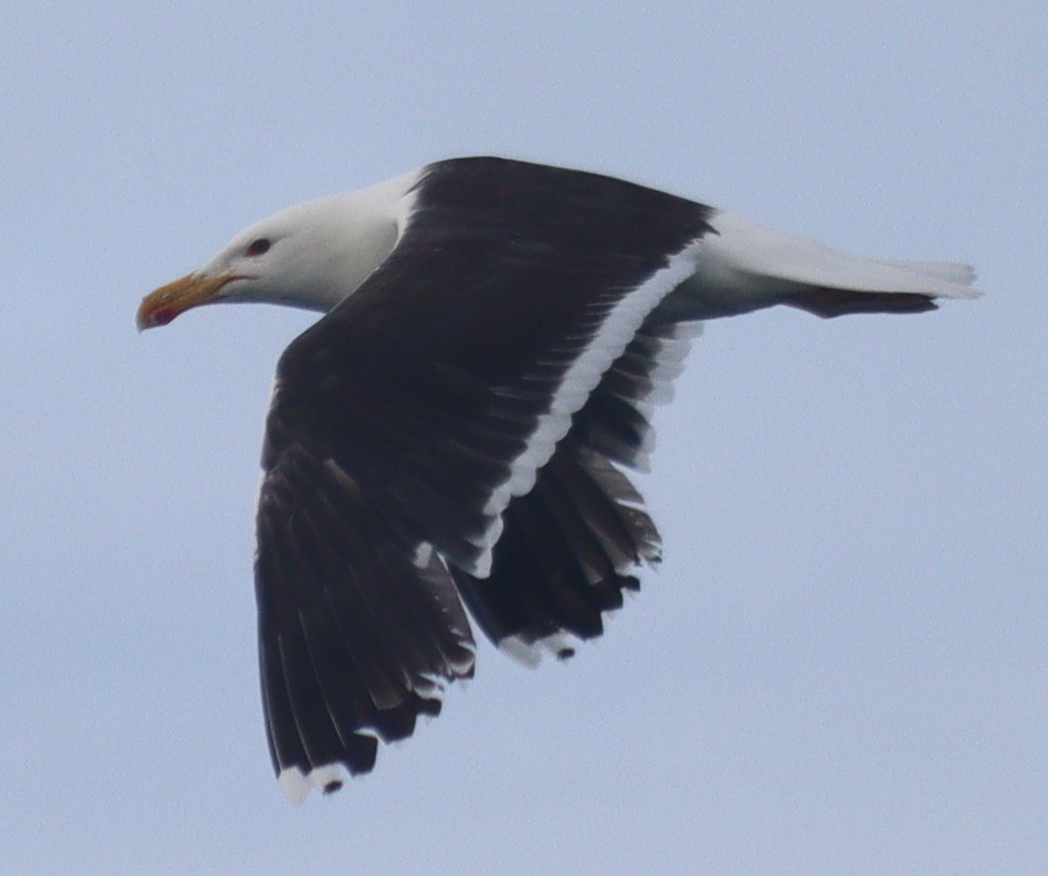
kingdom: Animalia
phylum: Chordata
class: Aves
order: Charadriiformes
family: Laridae
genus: Larus
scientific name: Larus marinus
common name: Great black-backed gull
